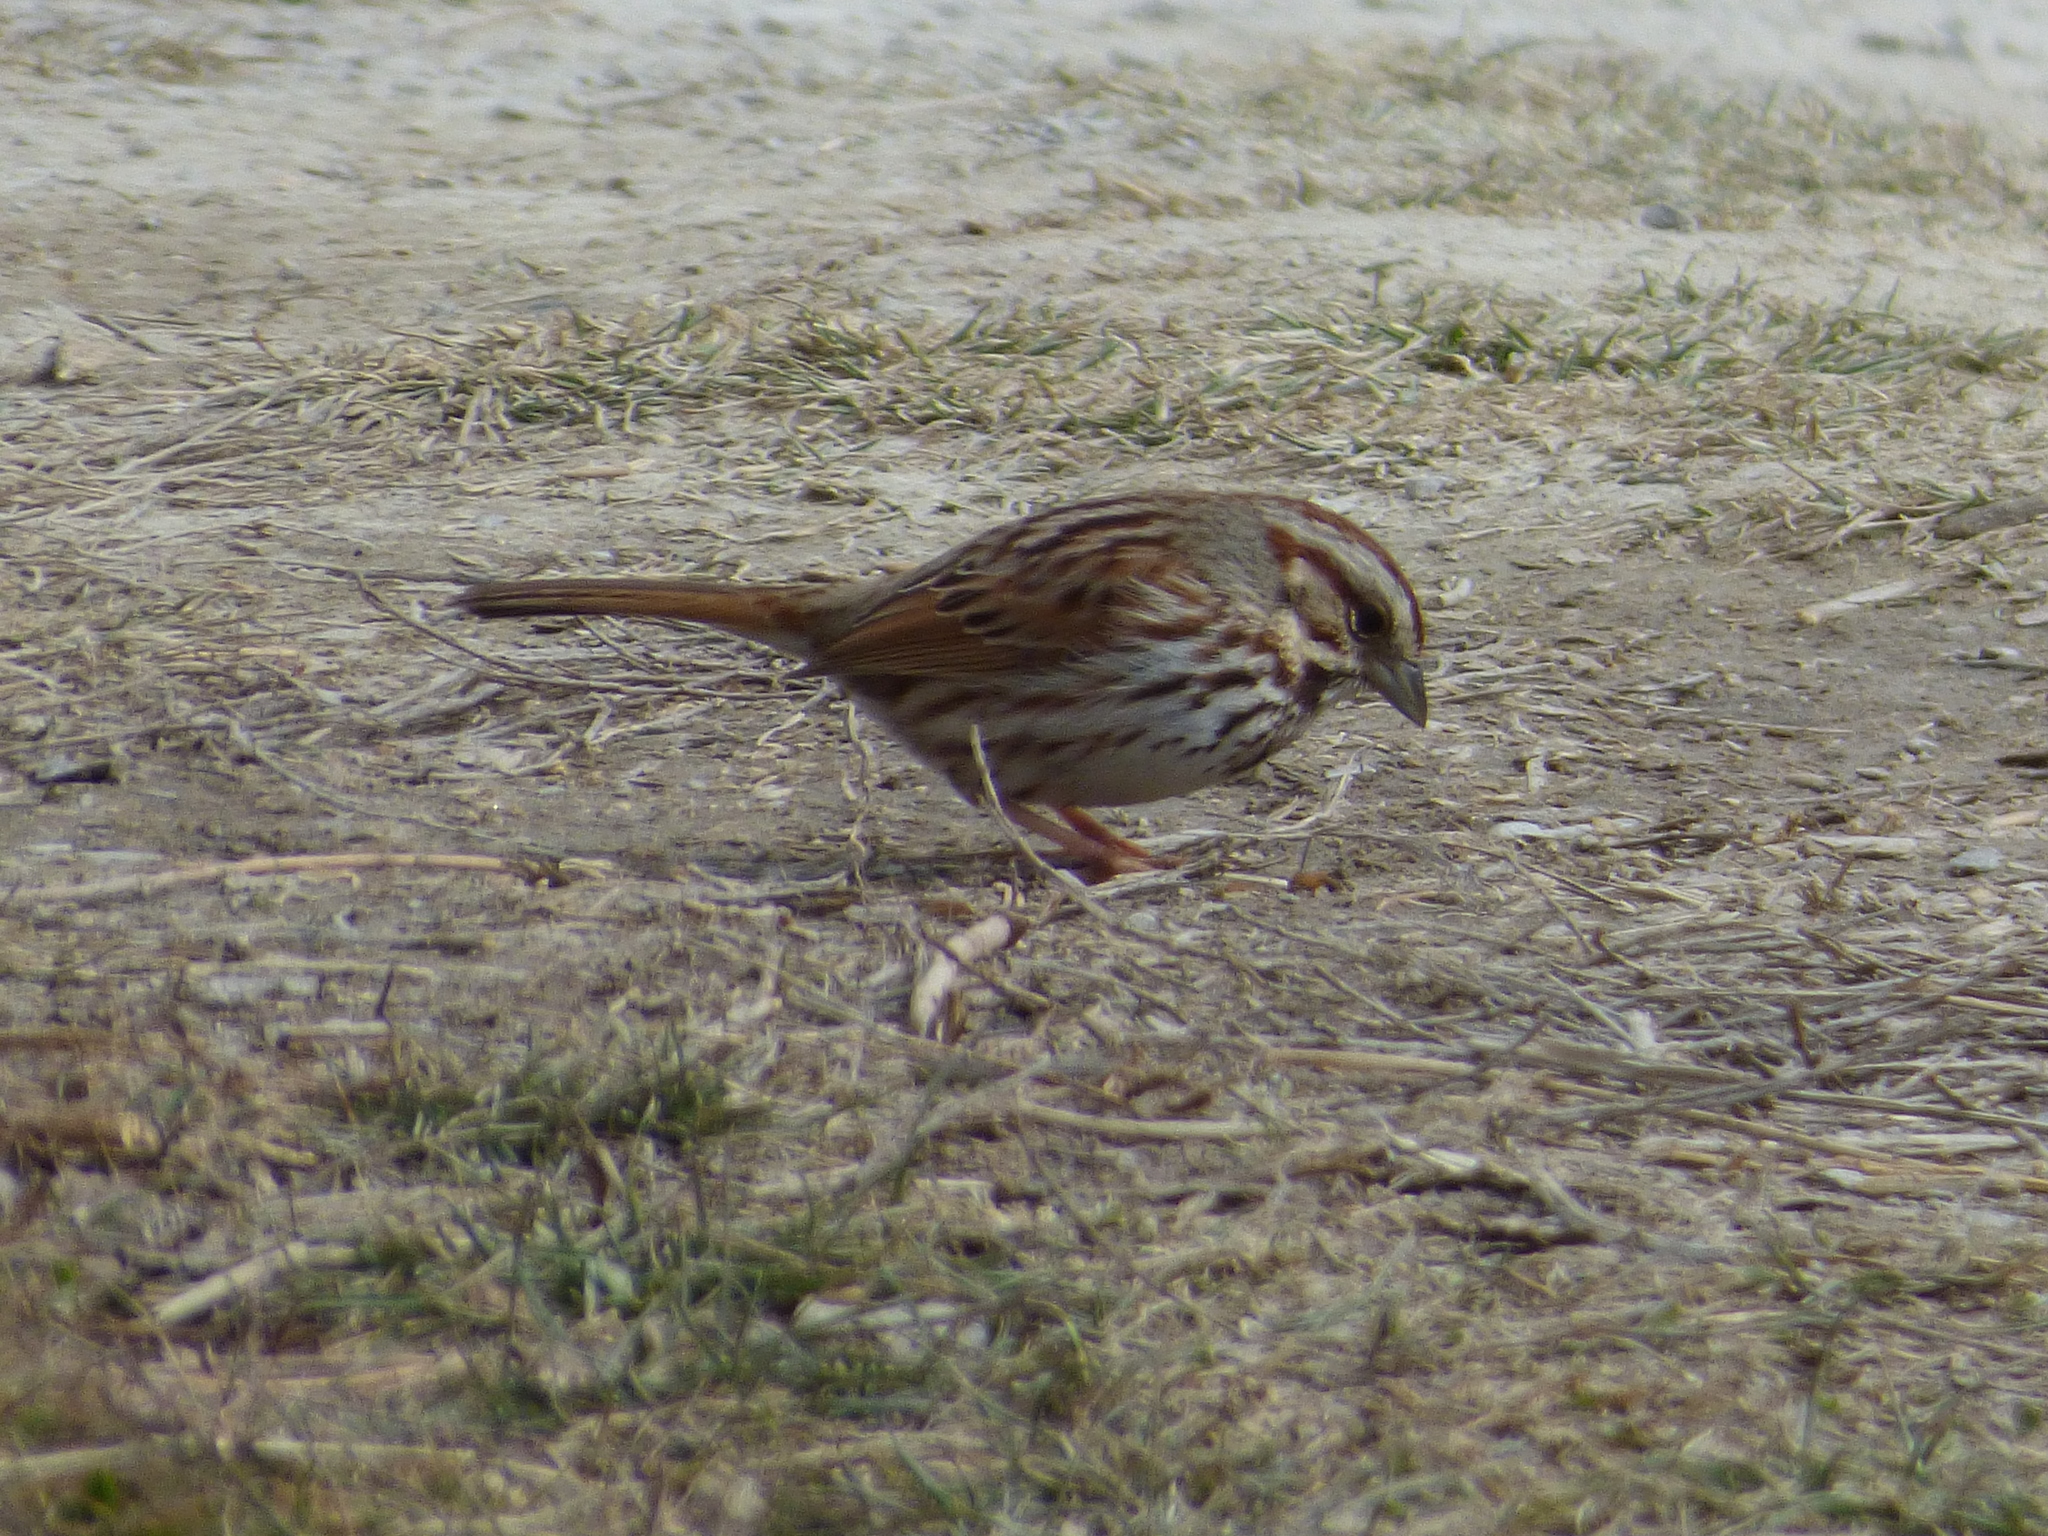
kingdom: Animalia
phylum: Chordata
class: Aves
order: Passeriformes
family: Passerellidae
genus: Melospiza
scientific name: Melospiza melodia
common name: Song sparrow
